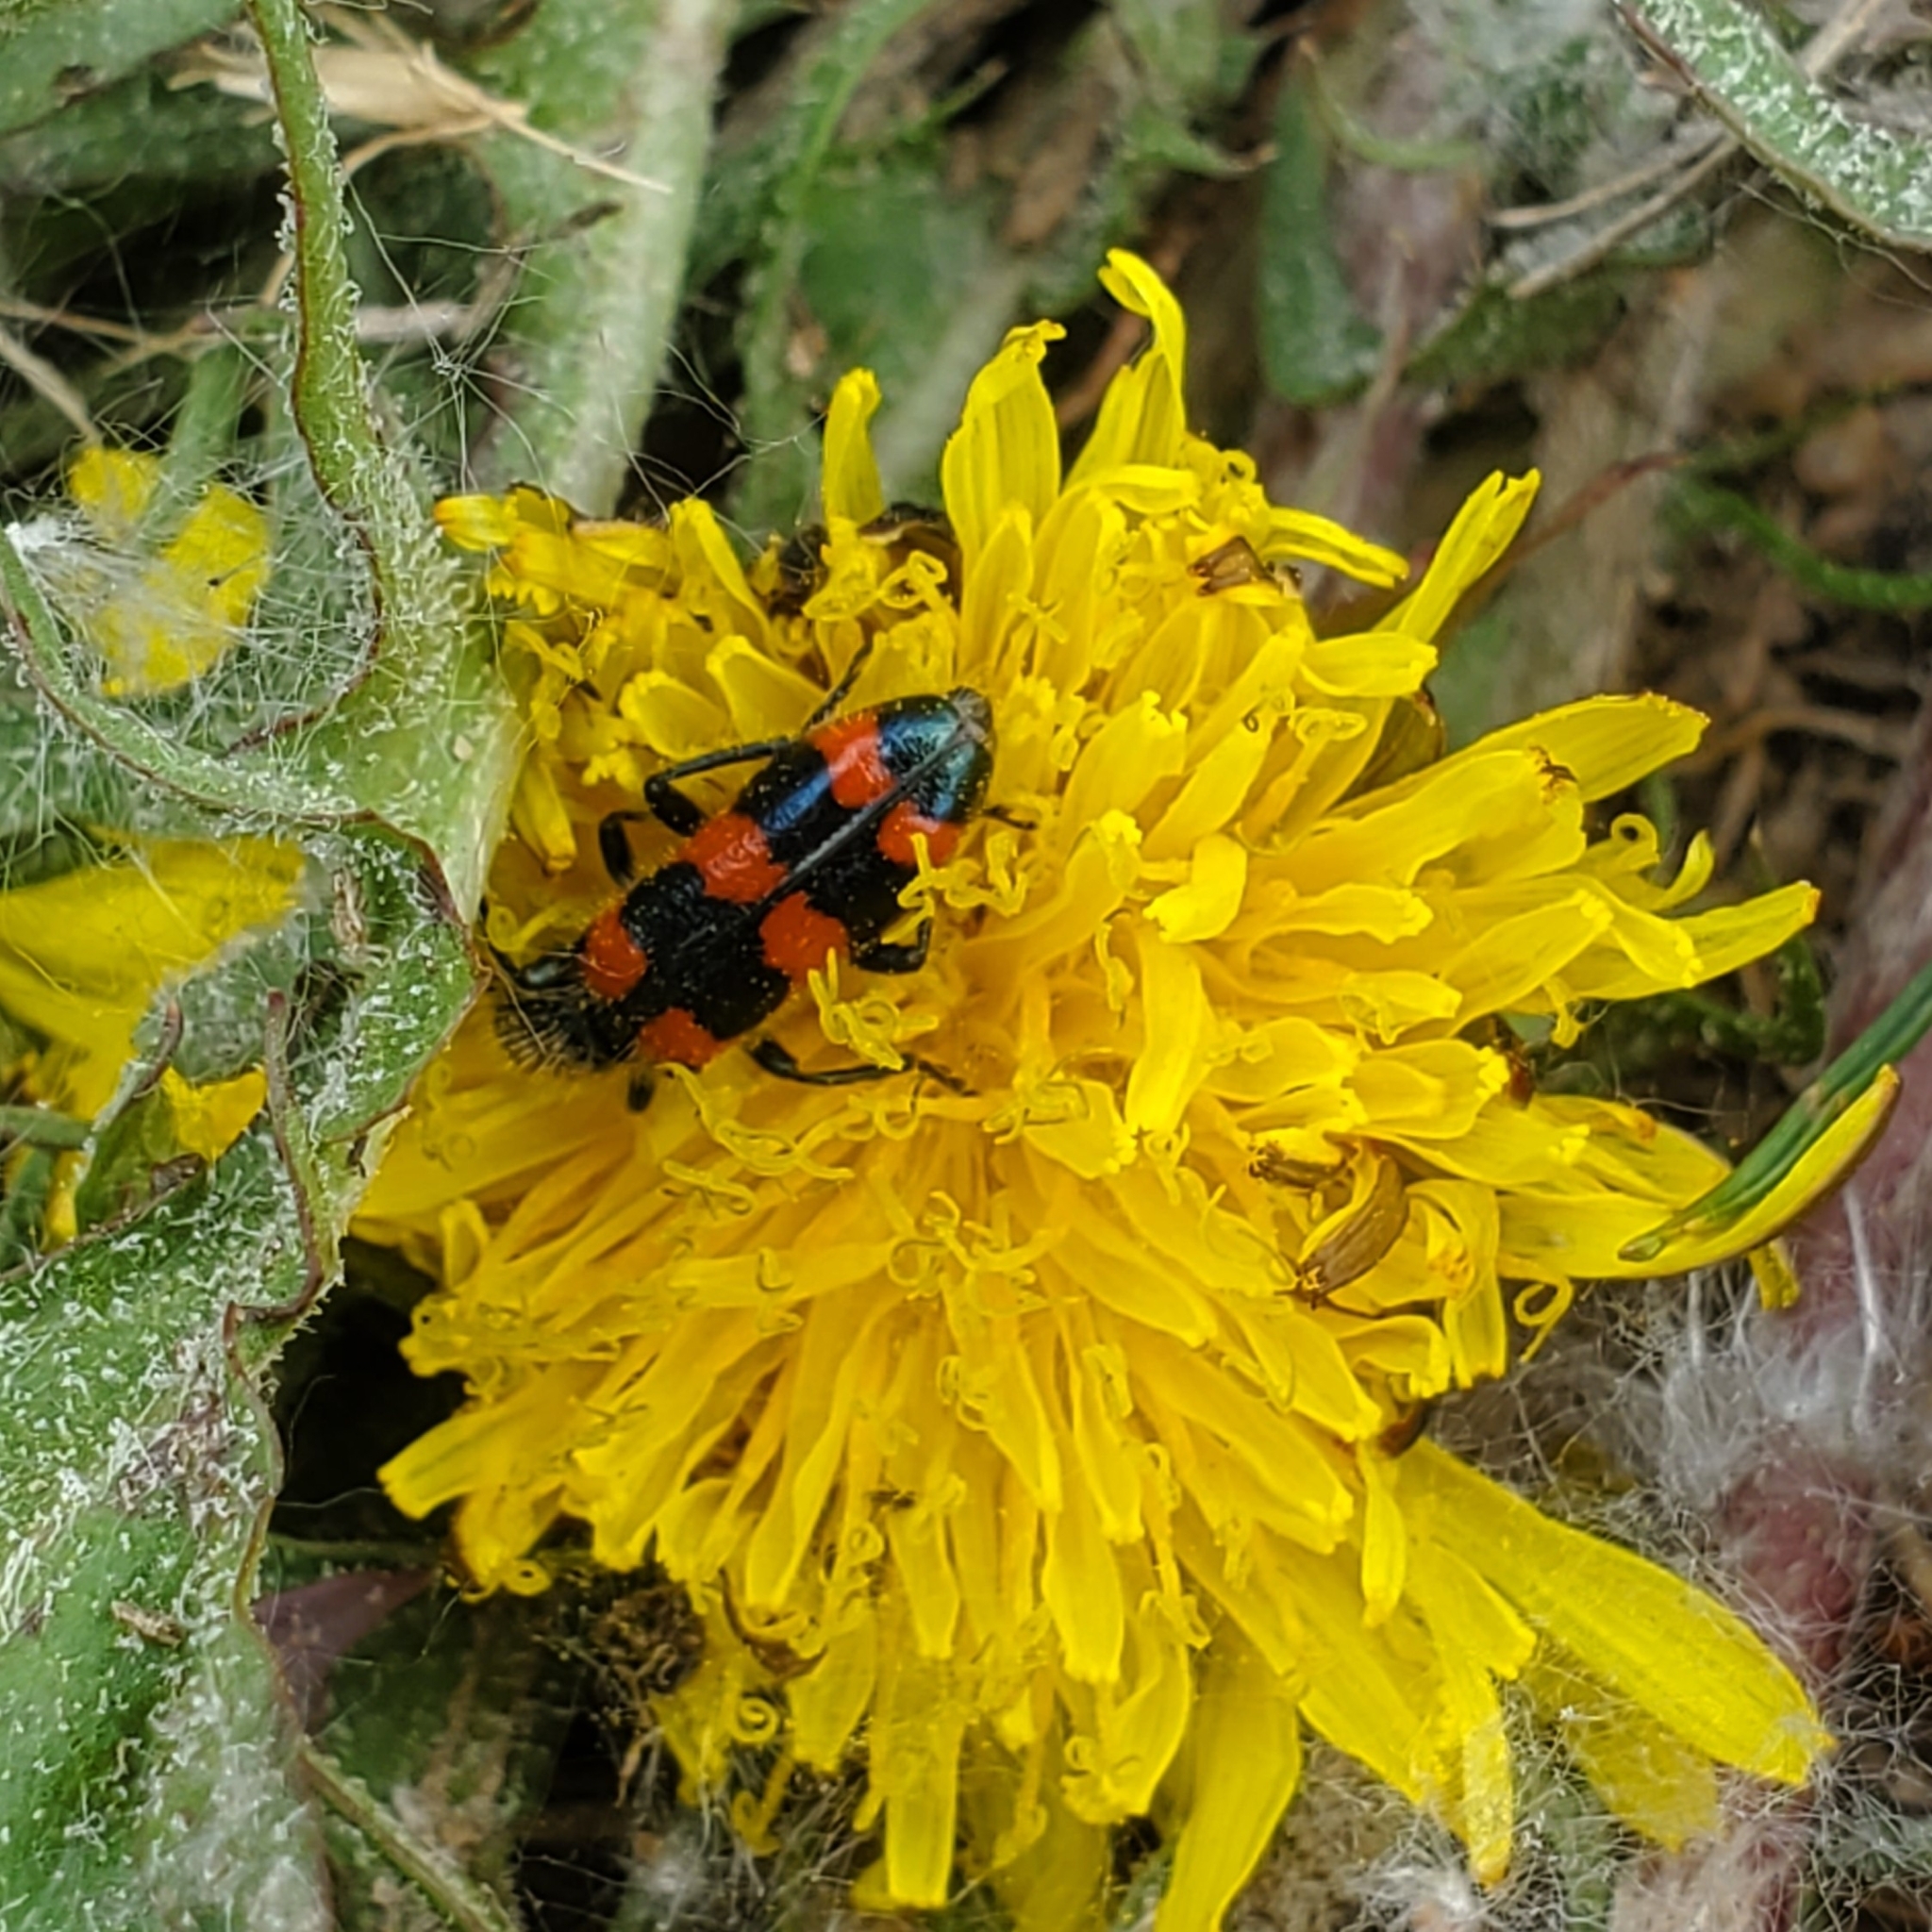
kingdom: Animalia
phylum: Arthropoda
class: Insecta
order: Coleoptera
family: Cleridae
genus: Trichodes
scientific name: Trichodes nutalli
